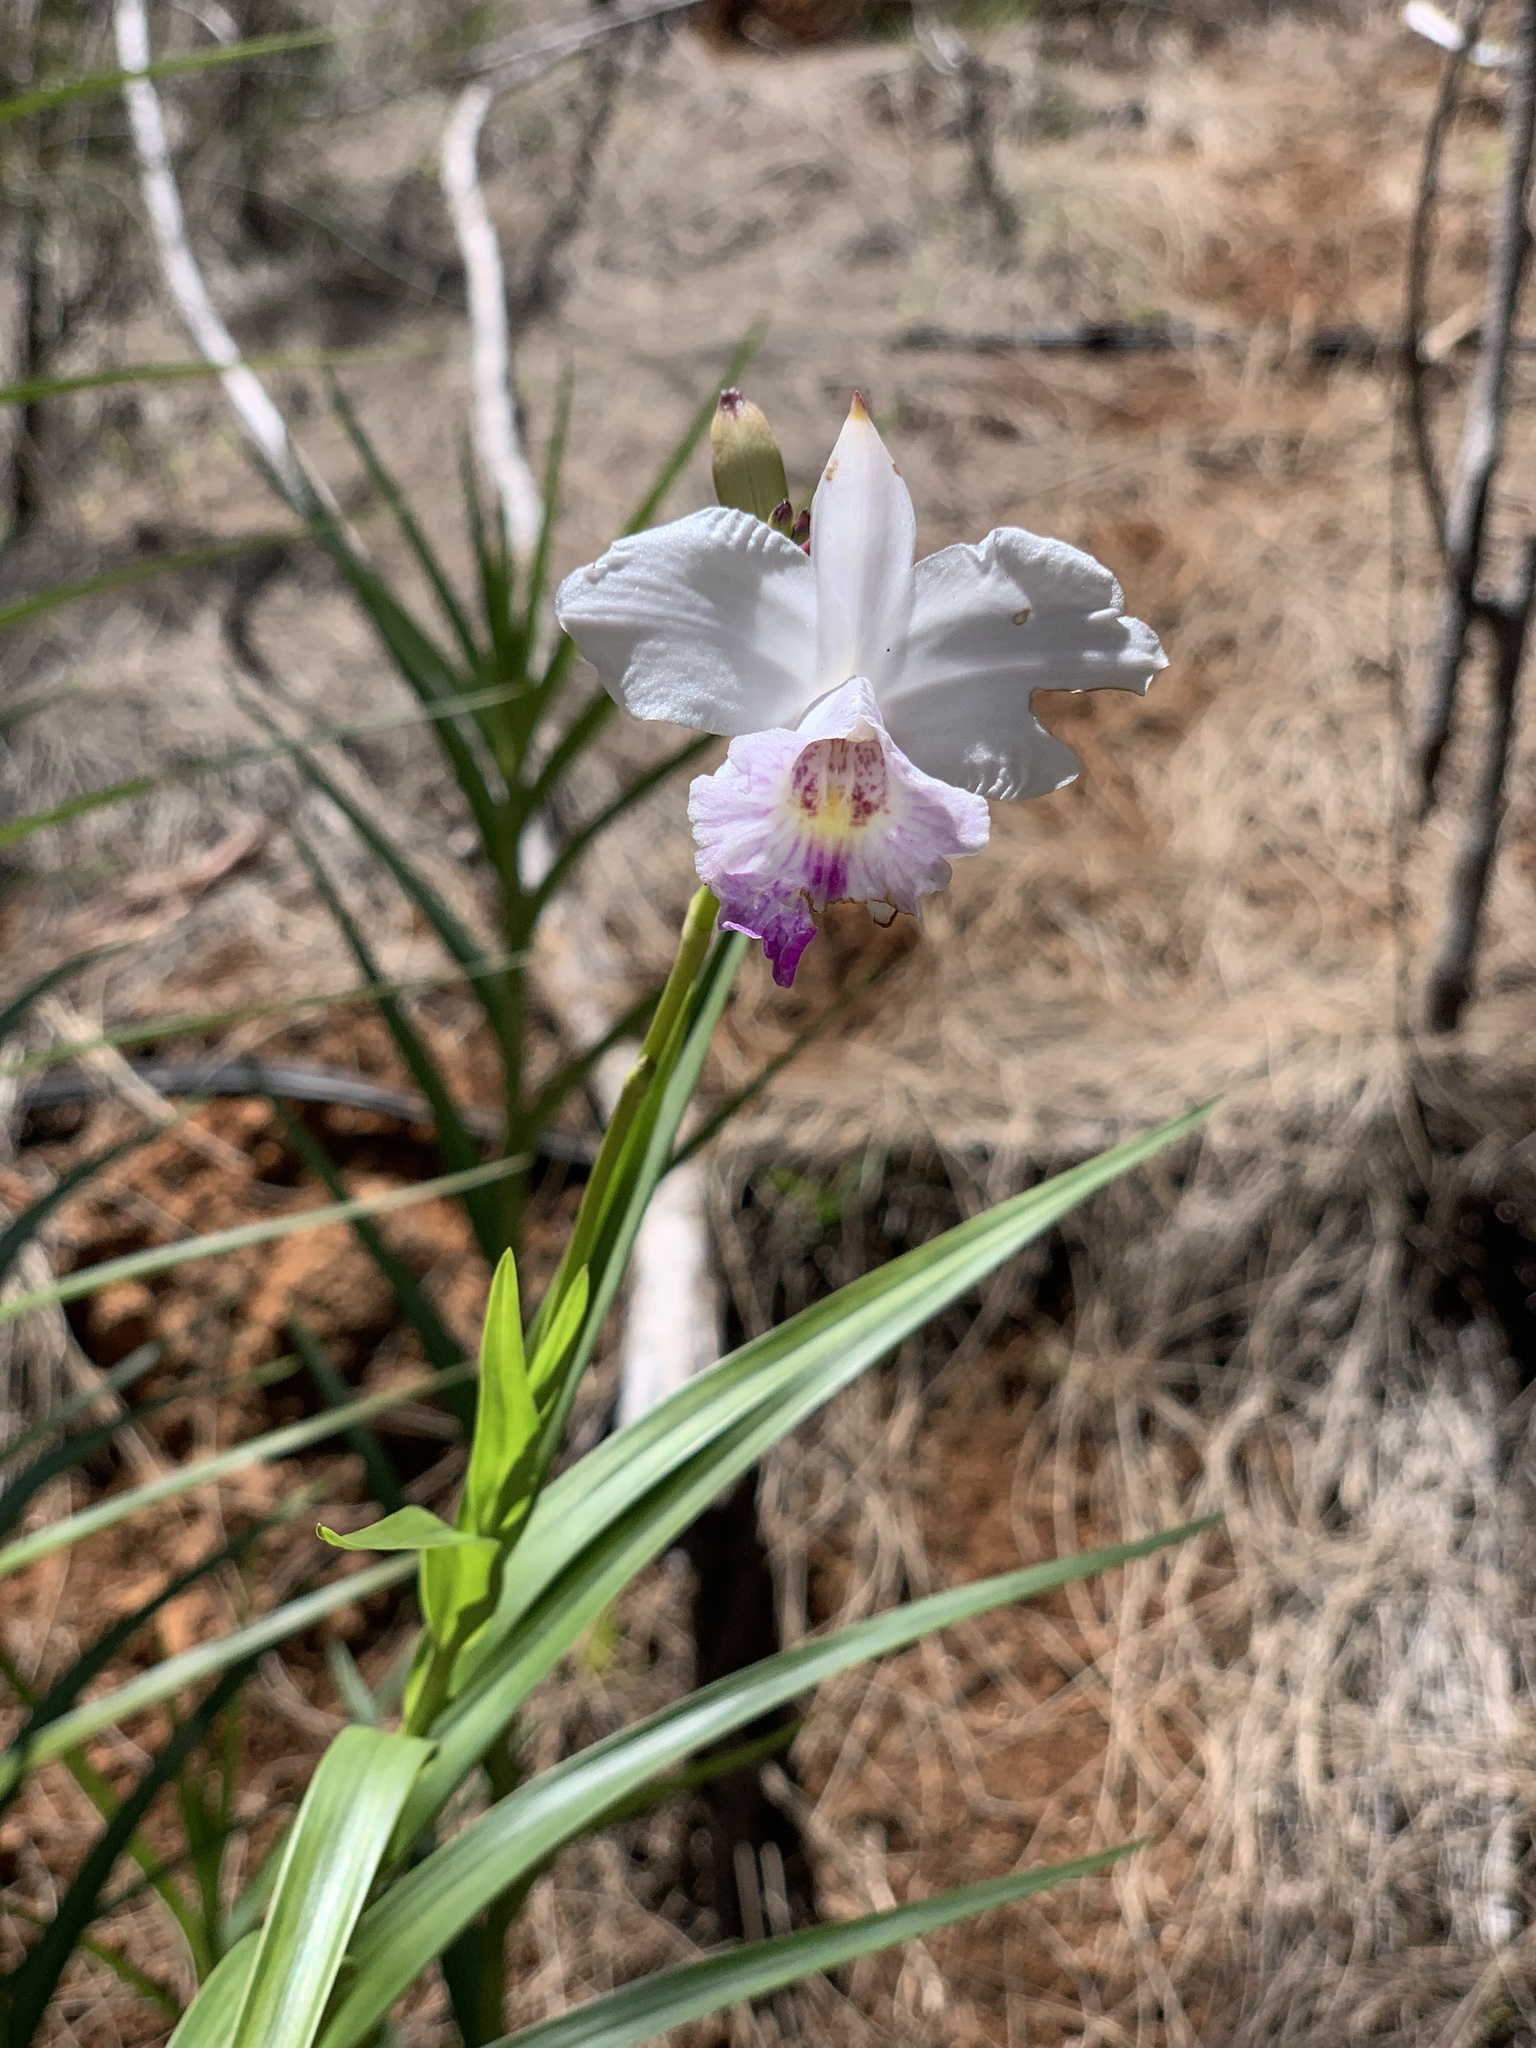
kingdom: Plantae
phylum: Tracheophyta
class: Liliopsida
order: Asparagales
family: Orchidaceae
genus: Arundina
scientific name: Arundina graminifolia
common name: Bamboo orchid
